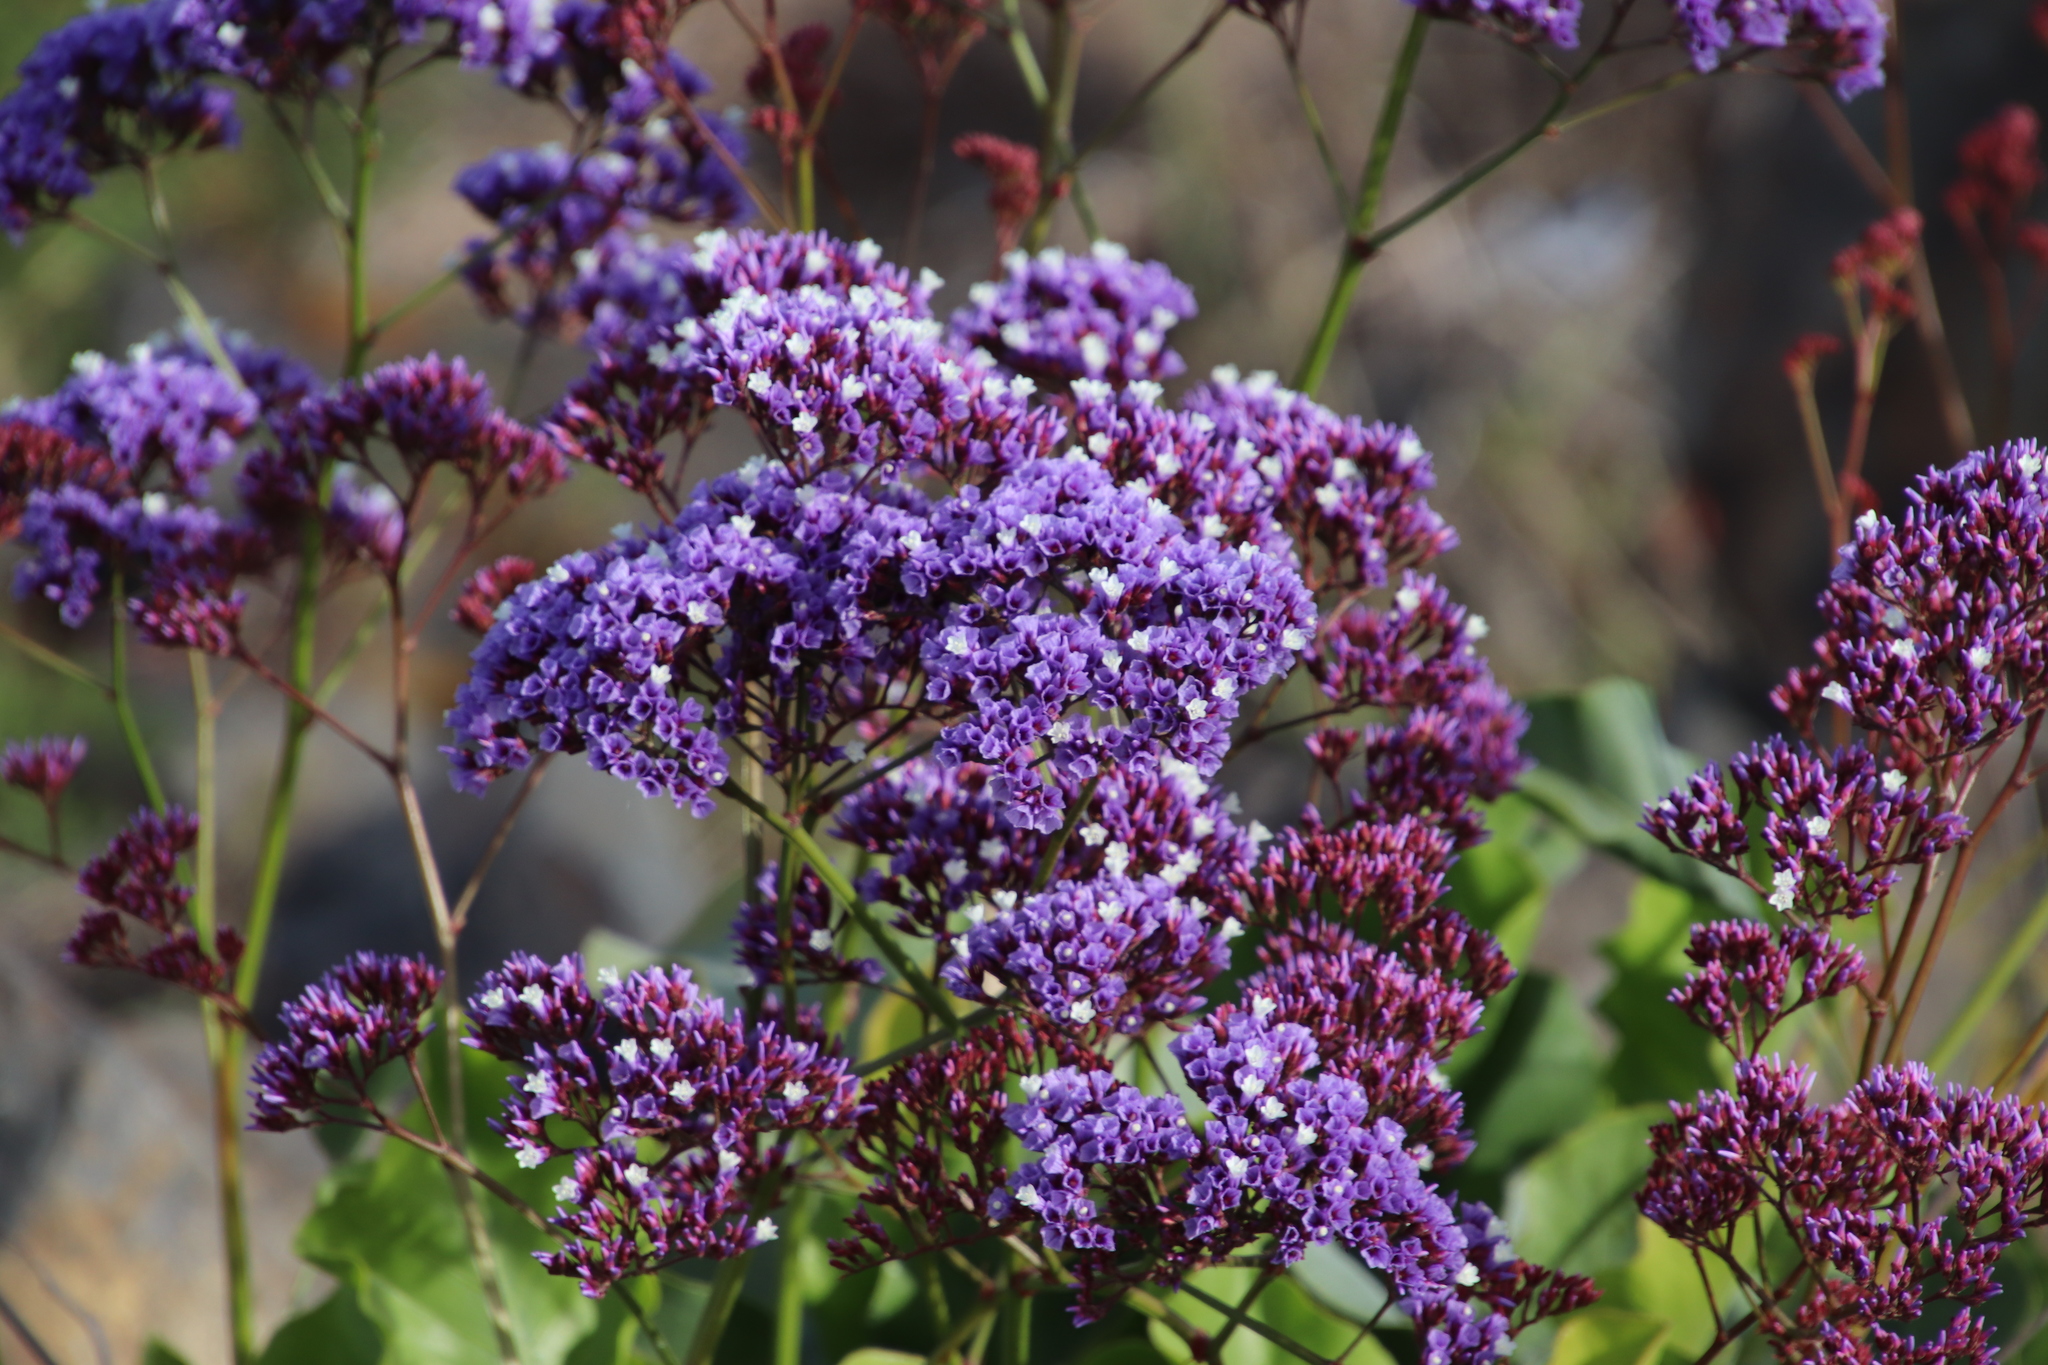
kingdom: Plantae
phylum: Tracheophyta
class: Magnoliopsida
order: Caryophyllales
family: Plumbaginaceae
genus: Limonium
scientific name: Limonium perezii
